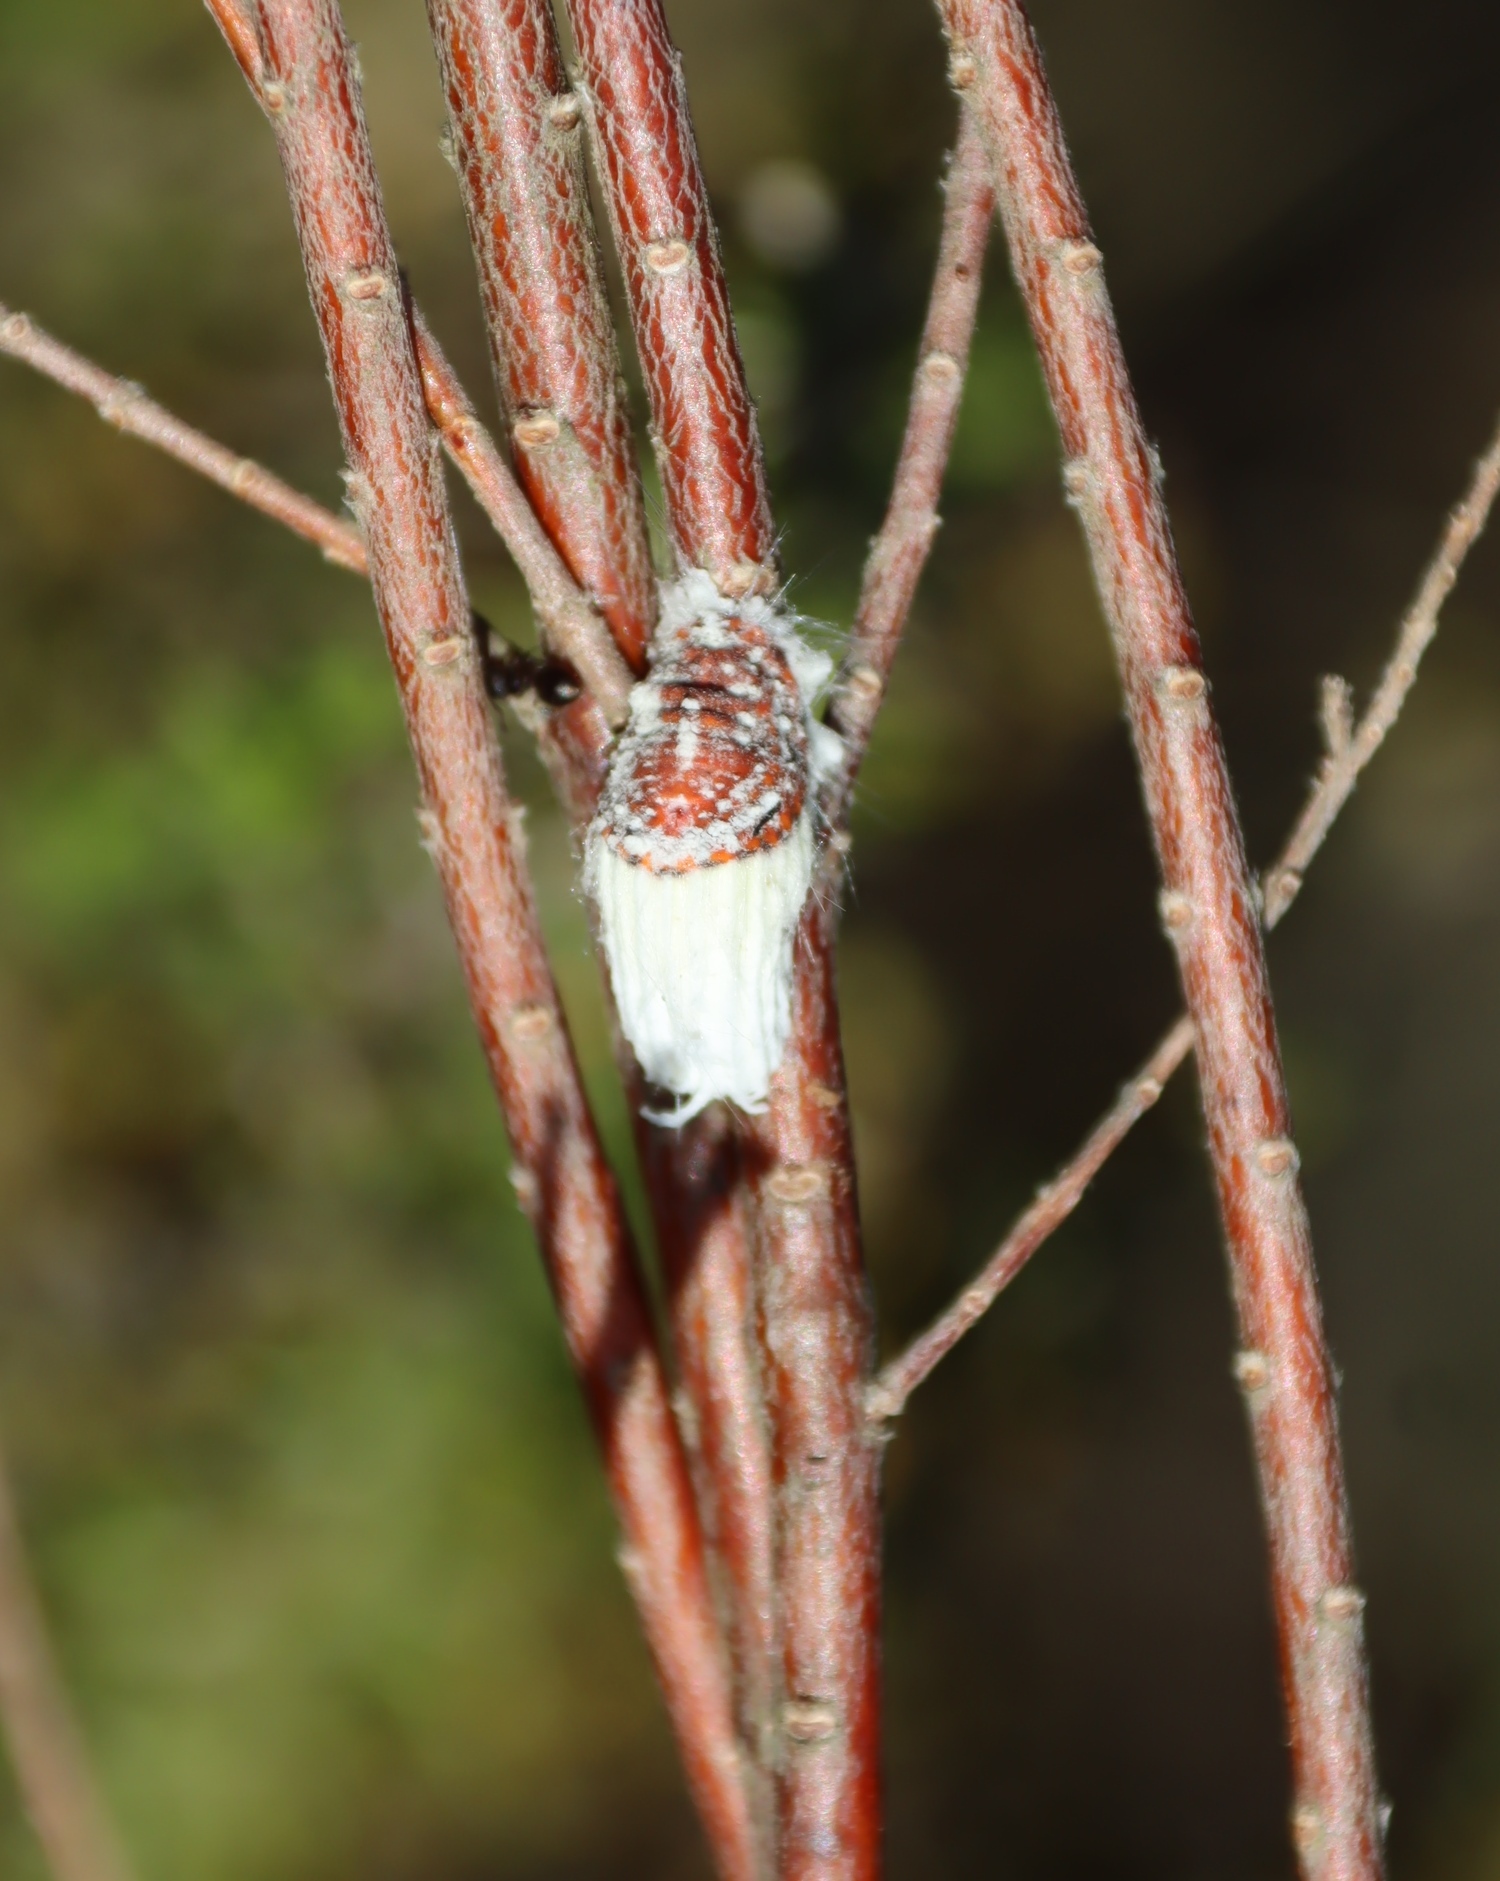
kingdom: Animalia
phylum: Arthropoda
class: Insecta
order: Hemiptera
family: Margarodidae
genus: Icerya
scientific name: Icerya purchasi
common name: Cottony cushion scale
